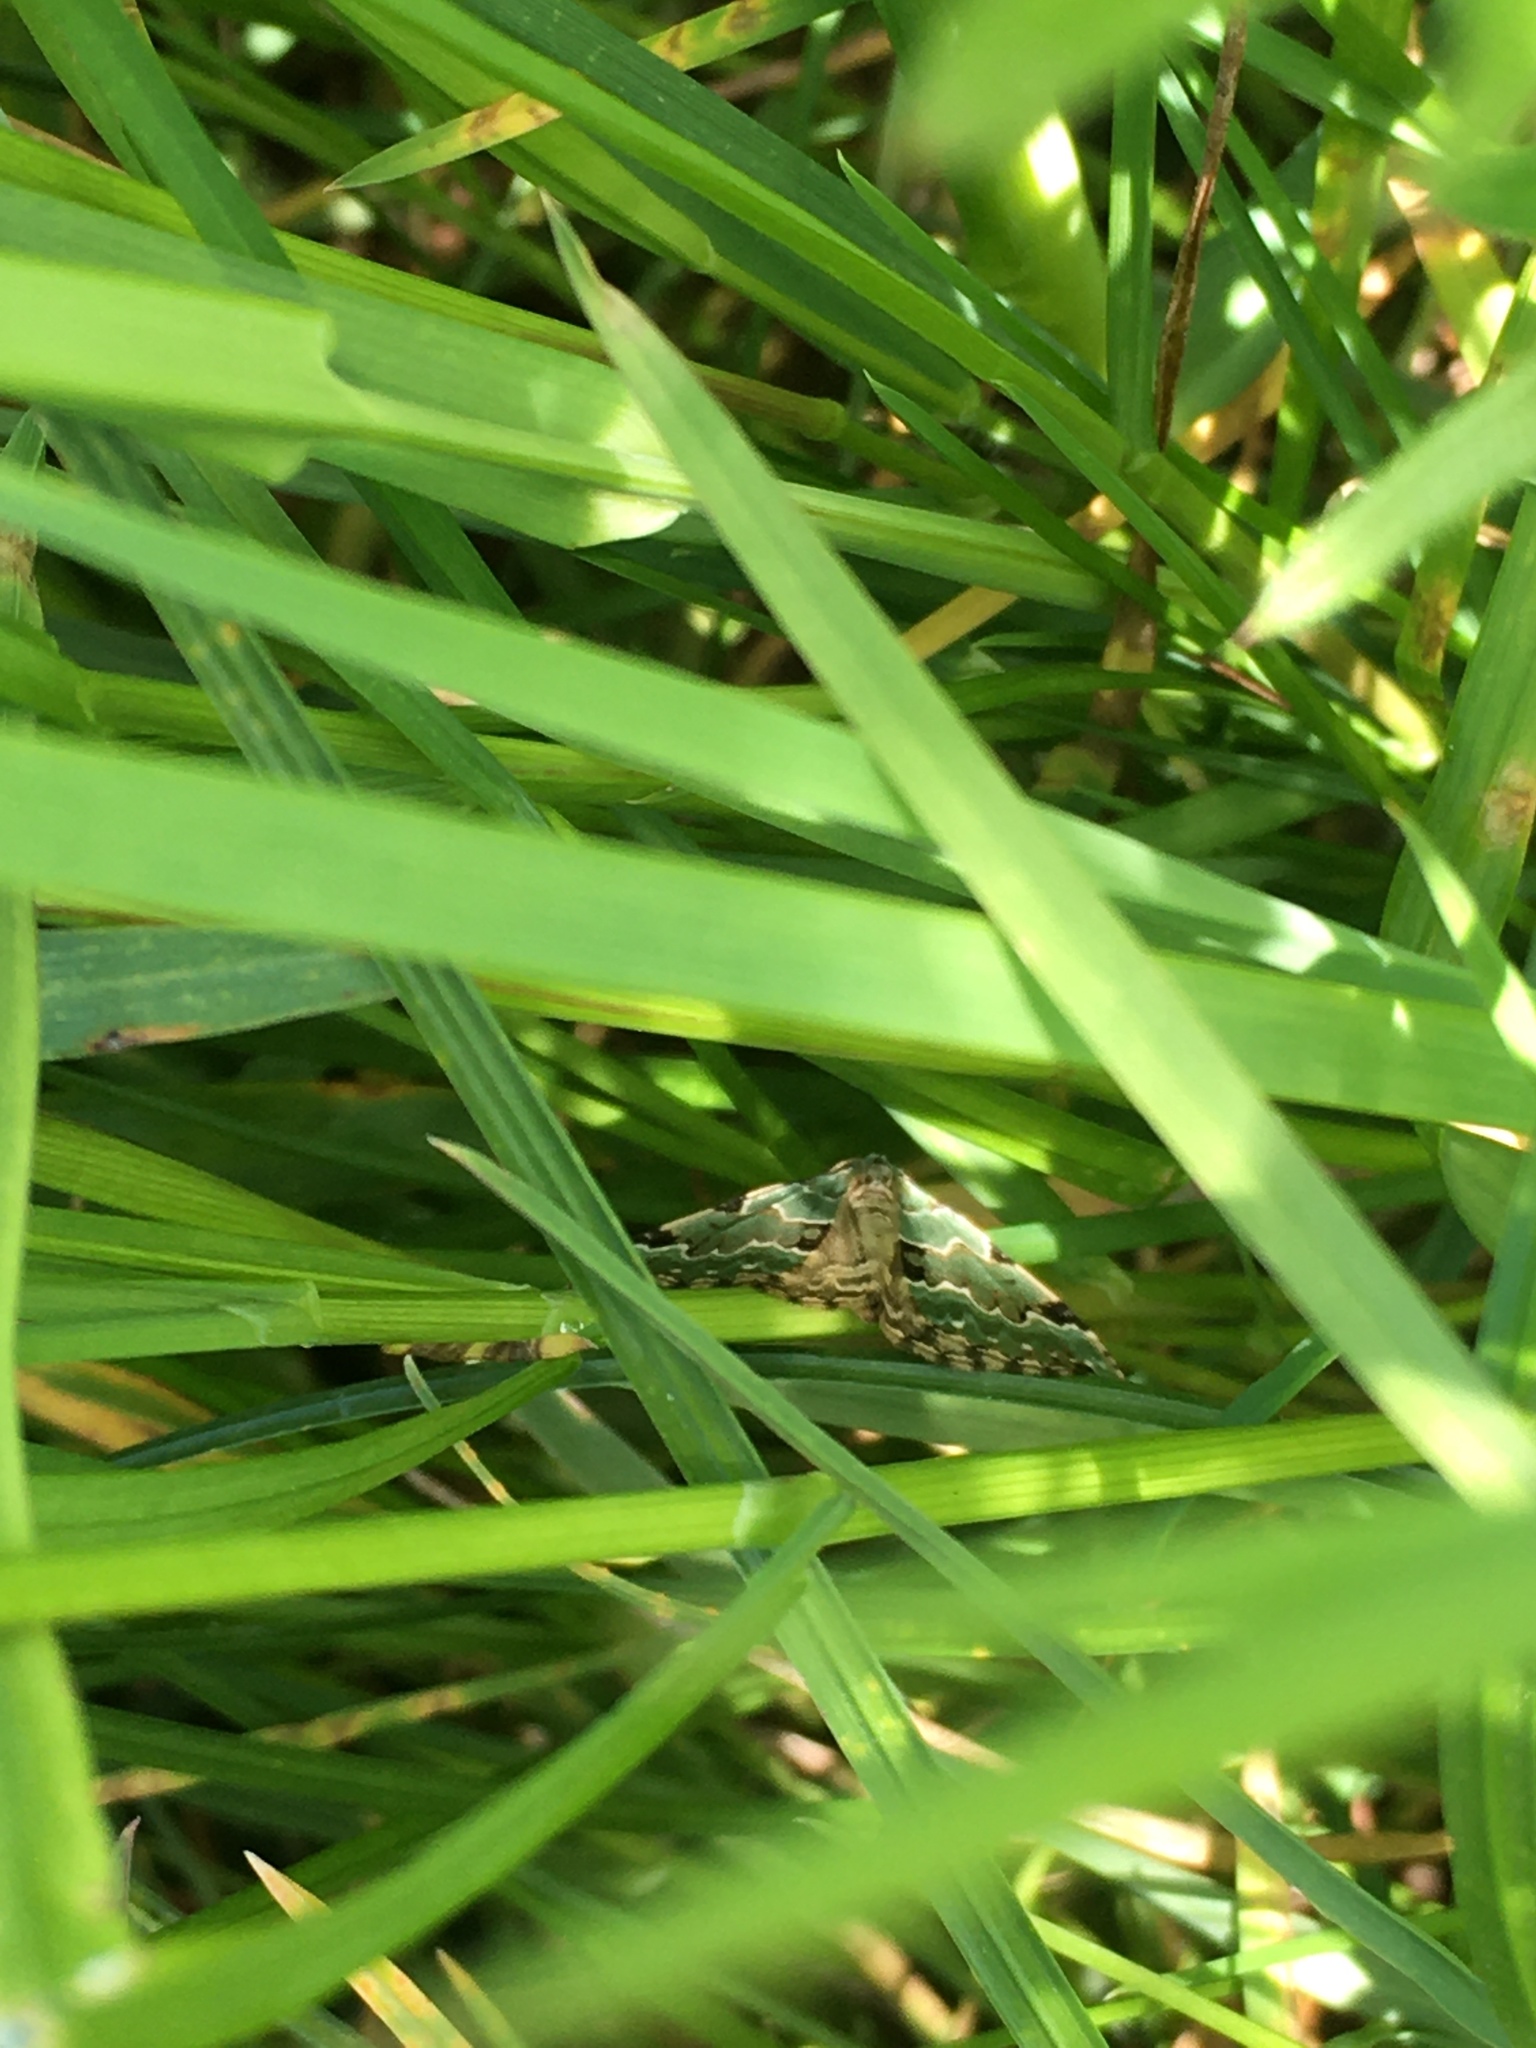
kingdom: Animalia
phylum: Arthropoda
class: Insecta
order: Lepidoptera
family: Geometridae
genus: Colostygia
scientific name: Colostygia pectinataria
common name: Green carpet
